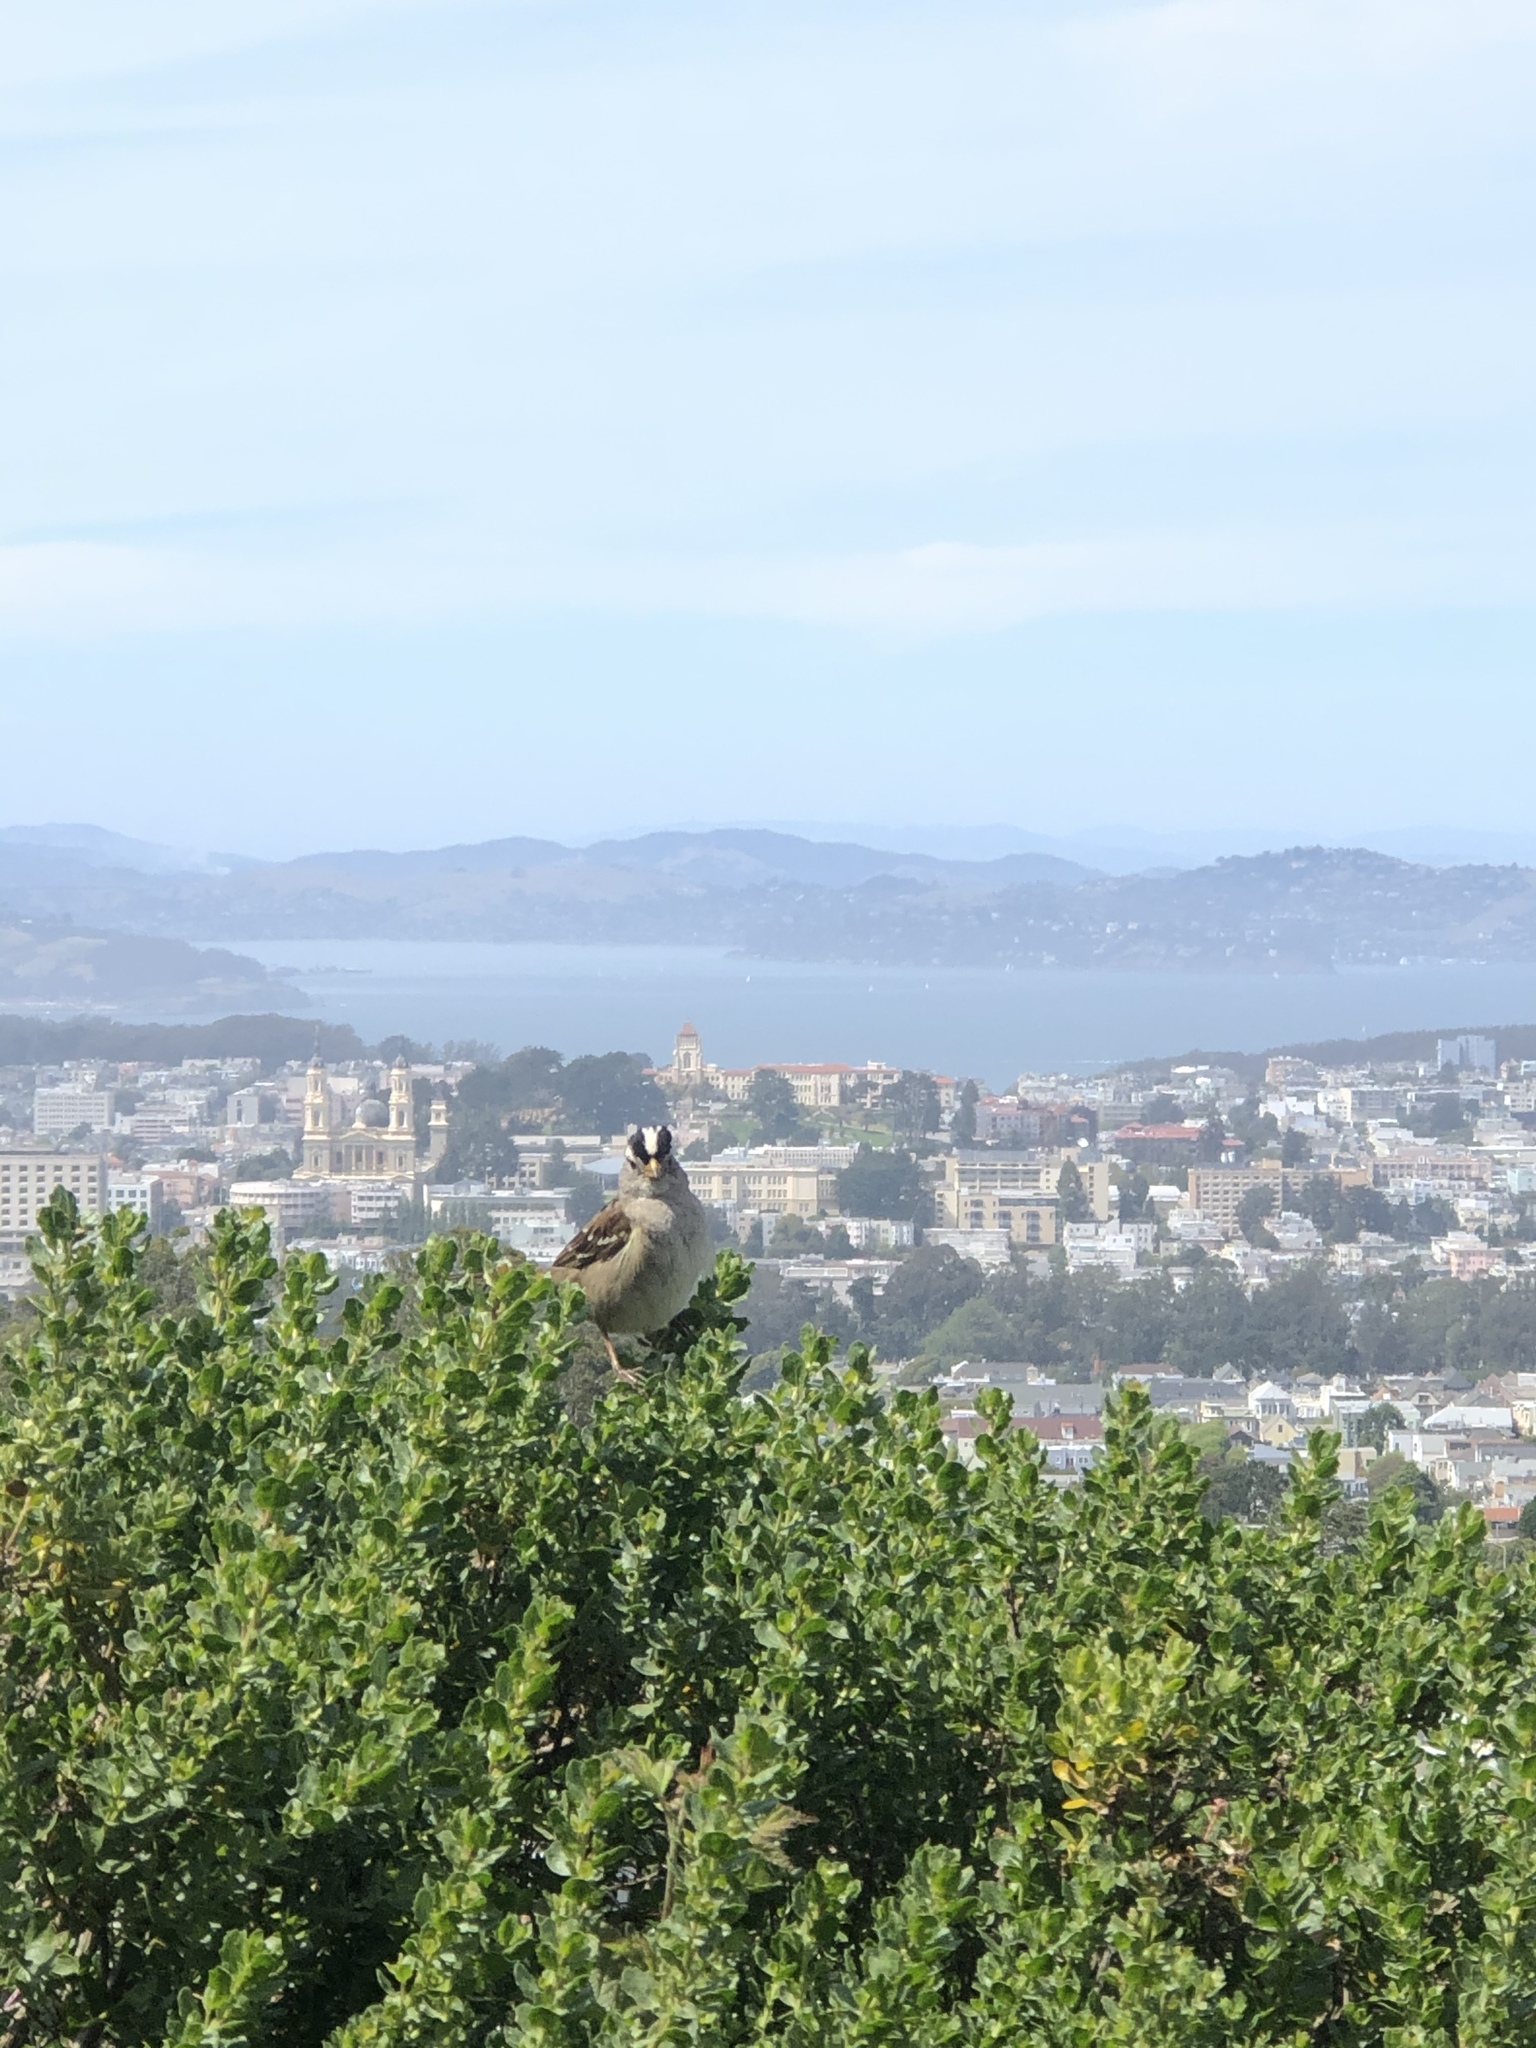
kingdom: Animalia
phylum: Chordata
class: Aves
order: Passeriformes
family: Passerellidae
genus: Zonotrichia
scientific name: Zonotrichia leucophrys
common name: White-crowned sparrow
